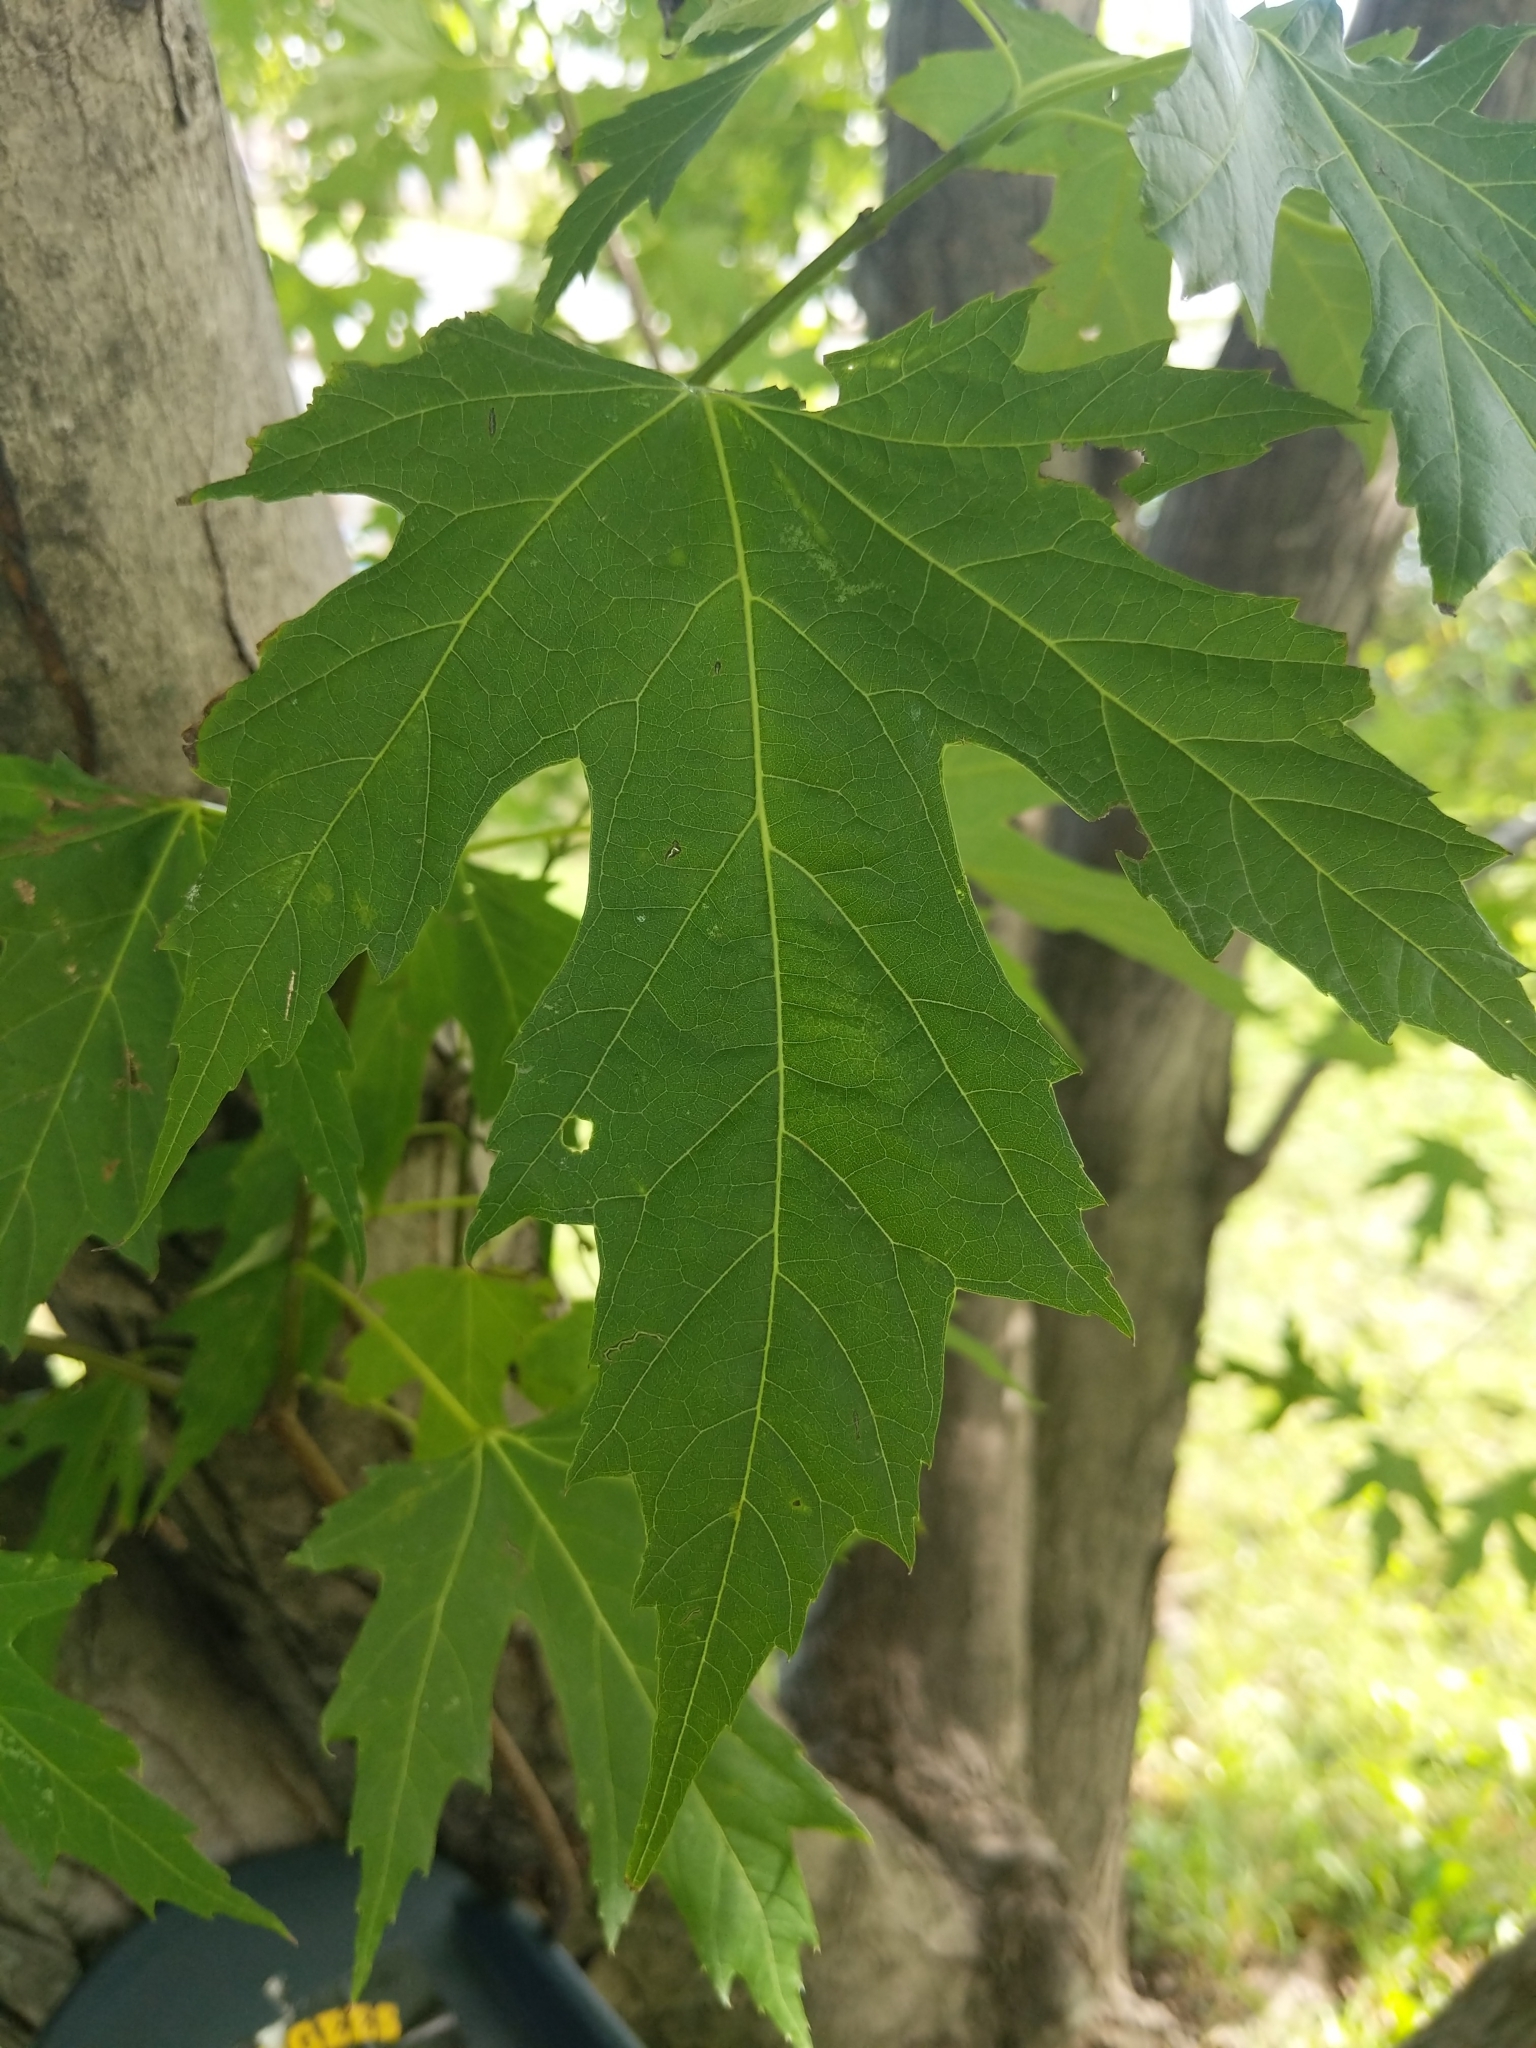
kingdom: Plantae
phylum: Tracheophyta
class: Magnoliopsida
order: Sapindales
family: Sapindaceae
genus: Acer
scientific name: Acer saccharinum
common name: Silver maple
